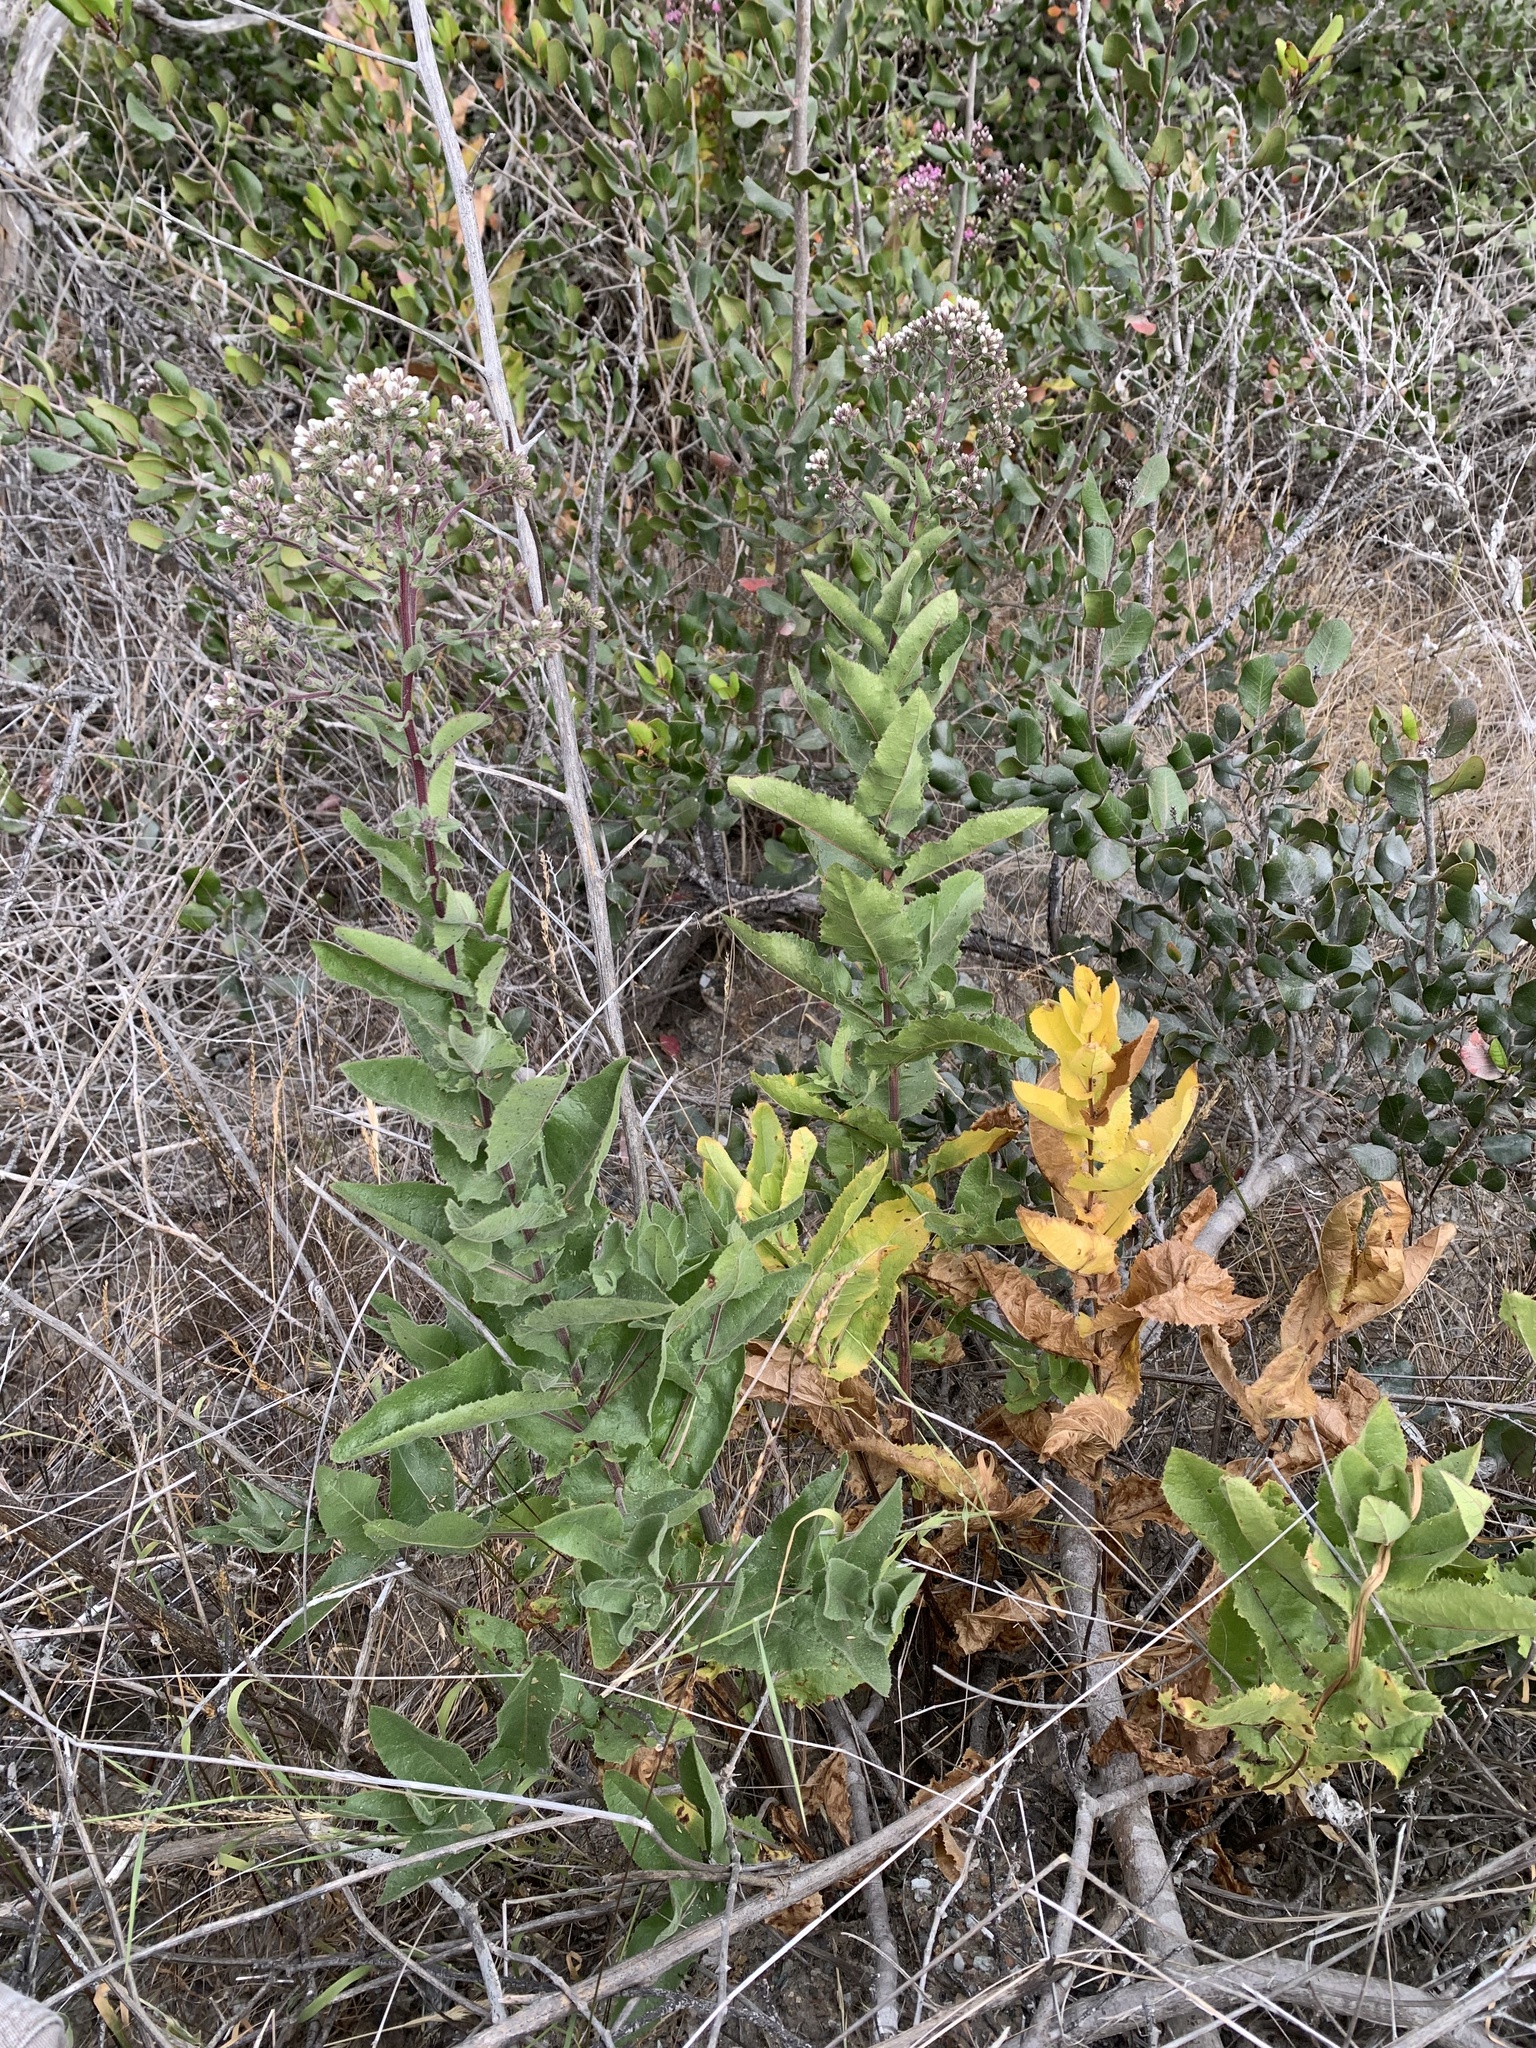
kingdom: Plantae
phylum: Tracheophyta
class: Magnoliopsida
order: Asterales
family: Asteraceae
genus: Acourtia
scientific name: Acourtia microcephala
